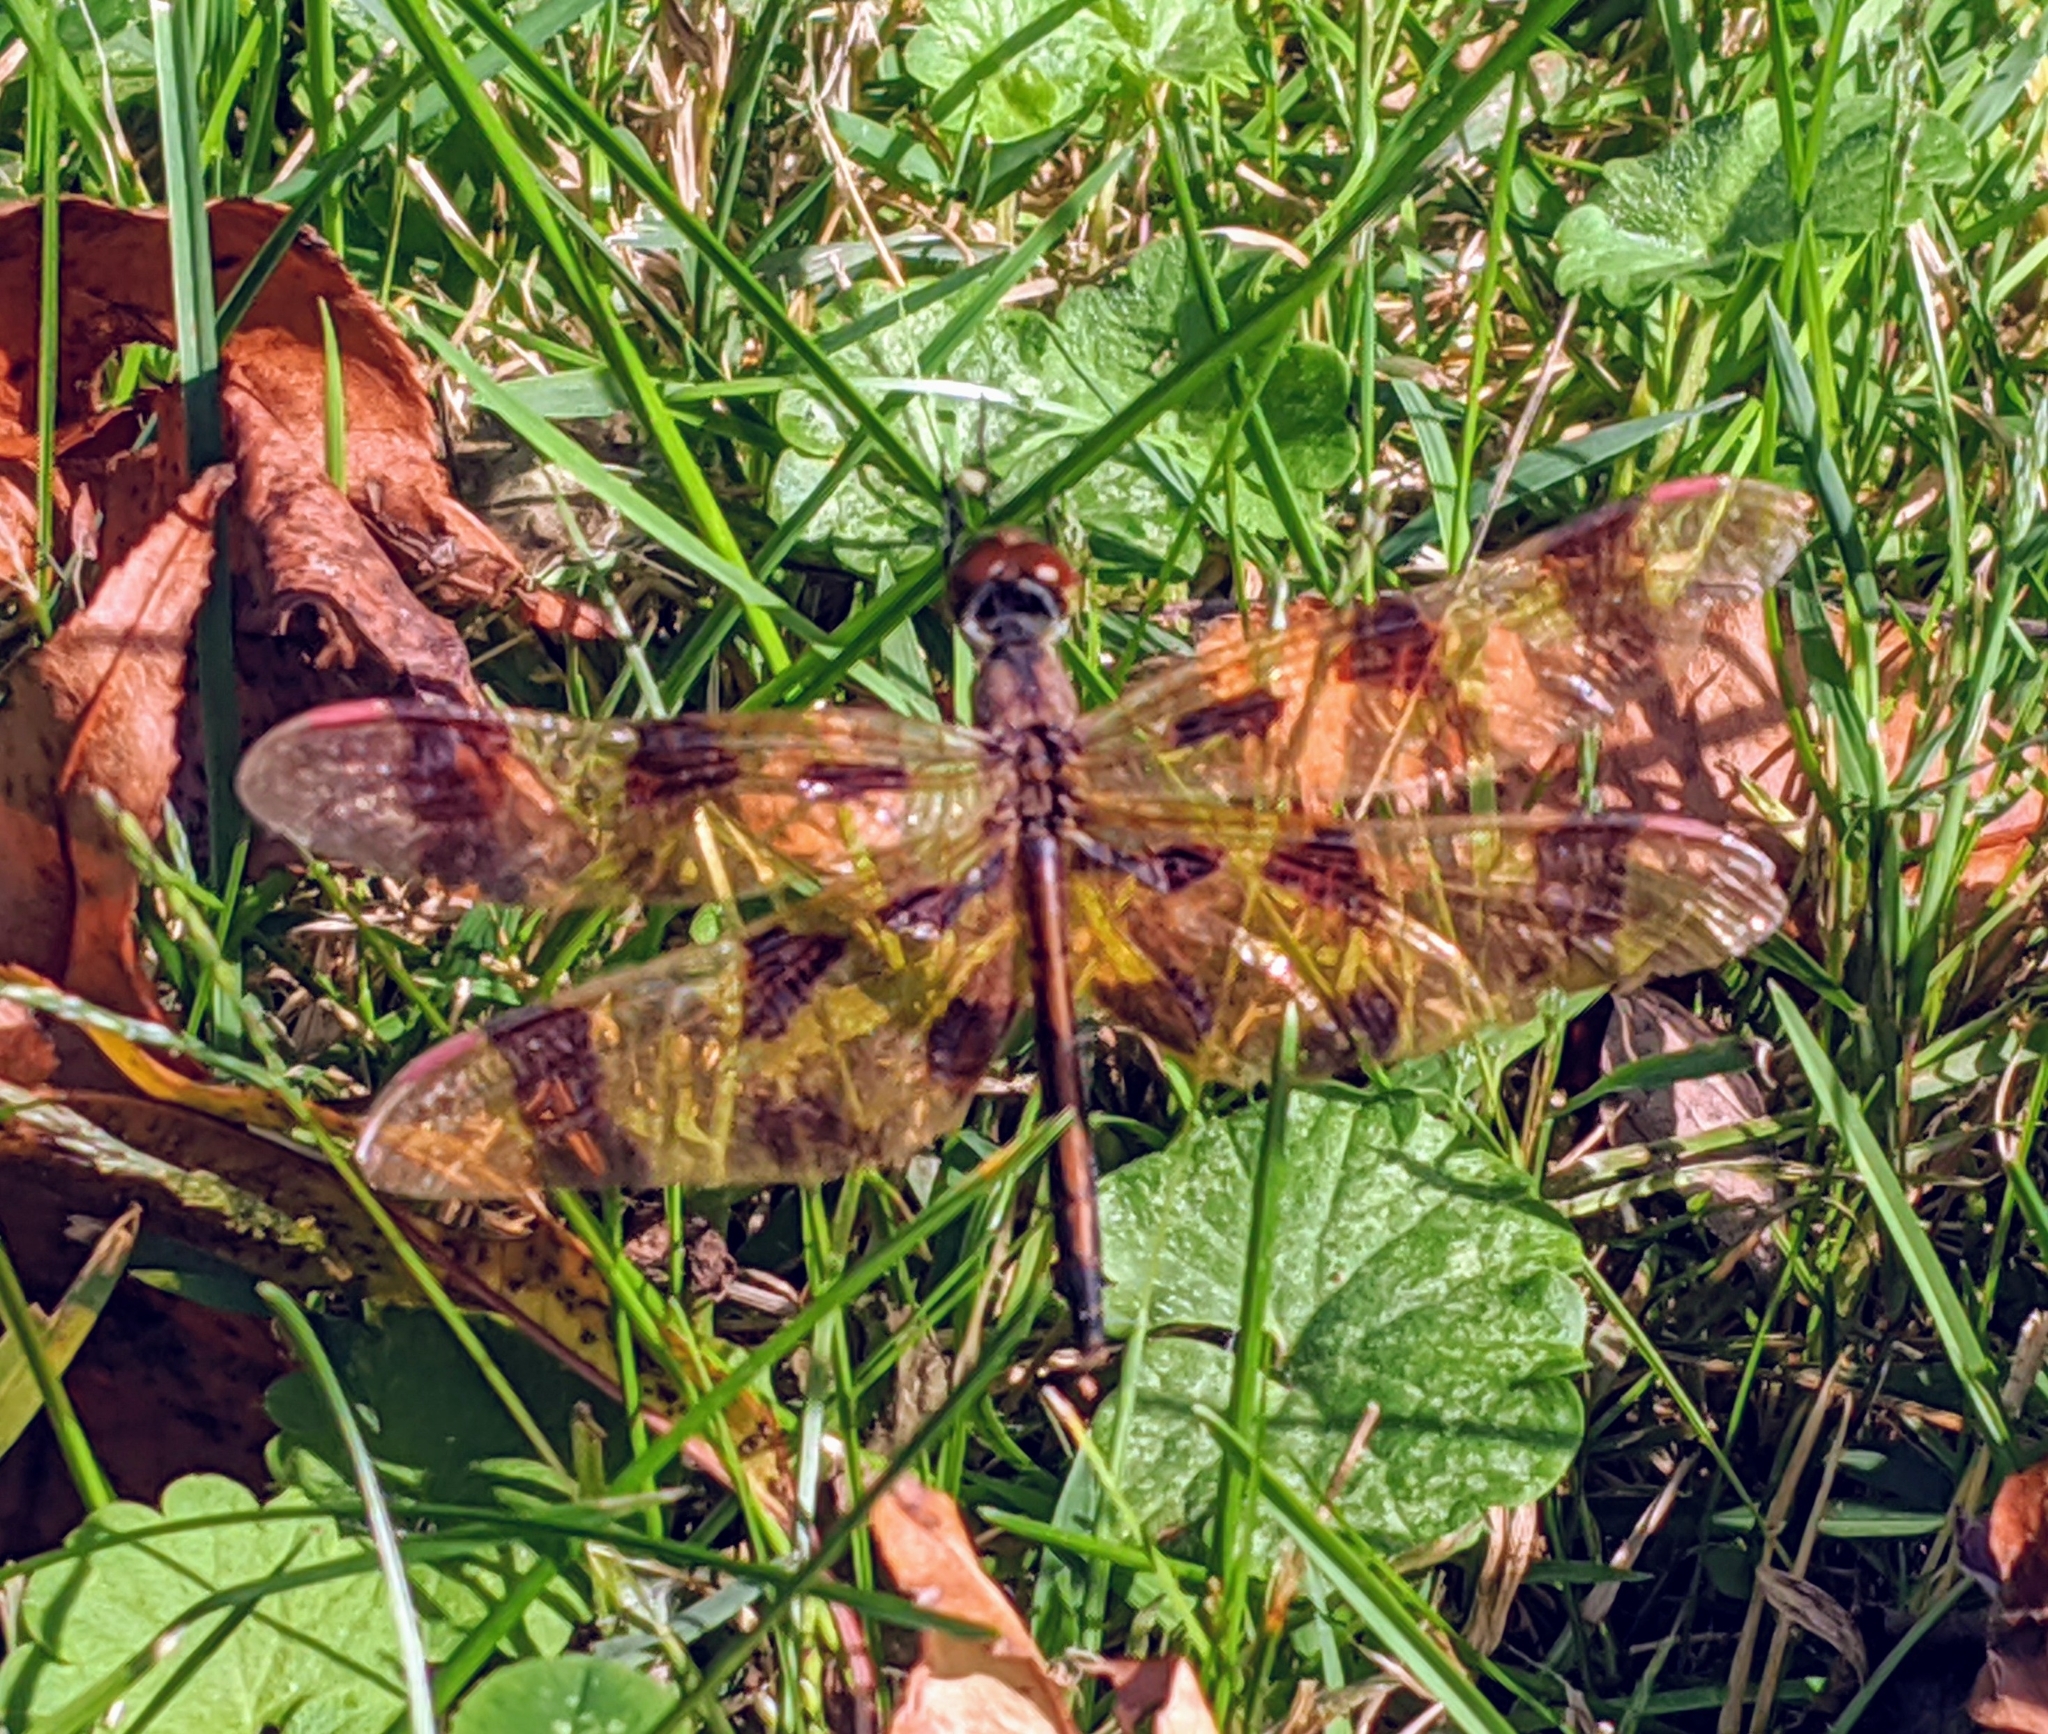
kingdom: Animalia
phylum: Arthropoda
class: Insecta
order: Odonata
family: Libellulidae
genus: Celithemis
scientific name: Celithemis eponina
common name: Halloween pennant
